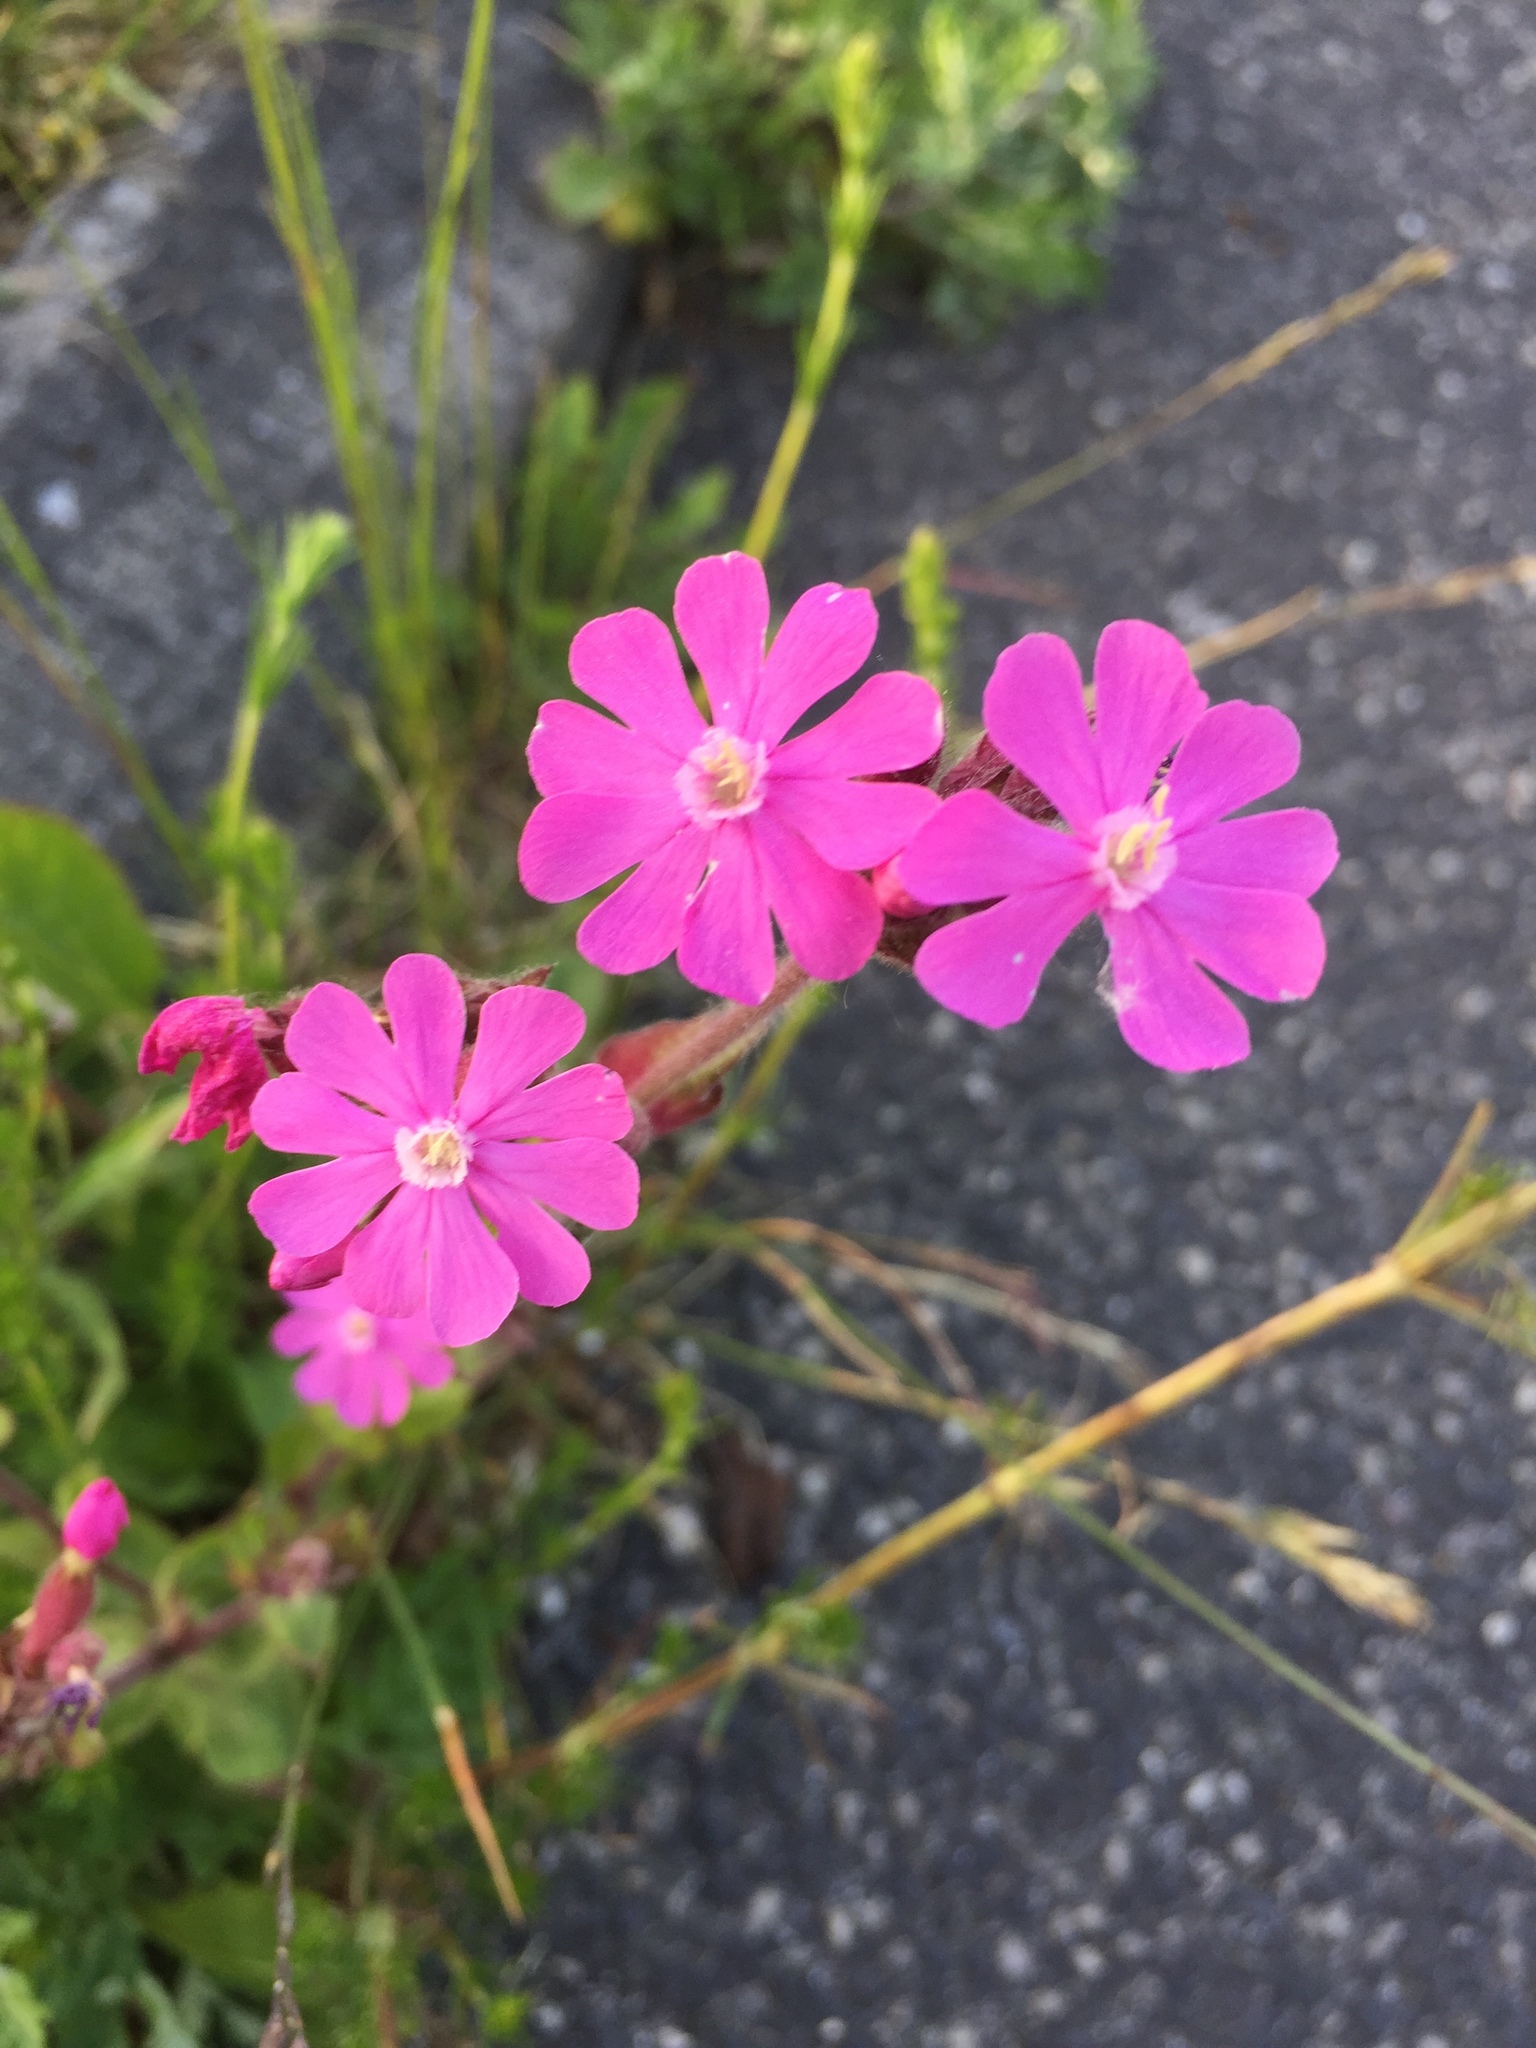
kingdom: Plantae
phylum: Tracheophyta
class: Magnoliopsida
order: Caryophyllales
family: Caryophyllaceae
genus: Silene
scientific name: Silene dioica
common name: Red campion
